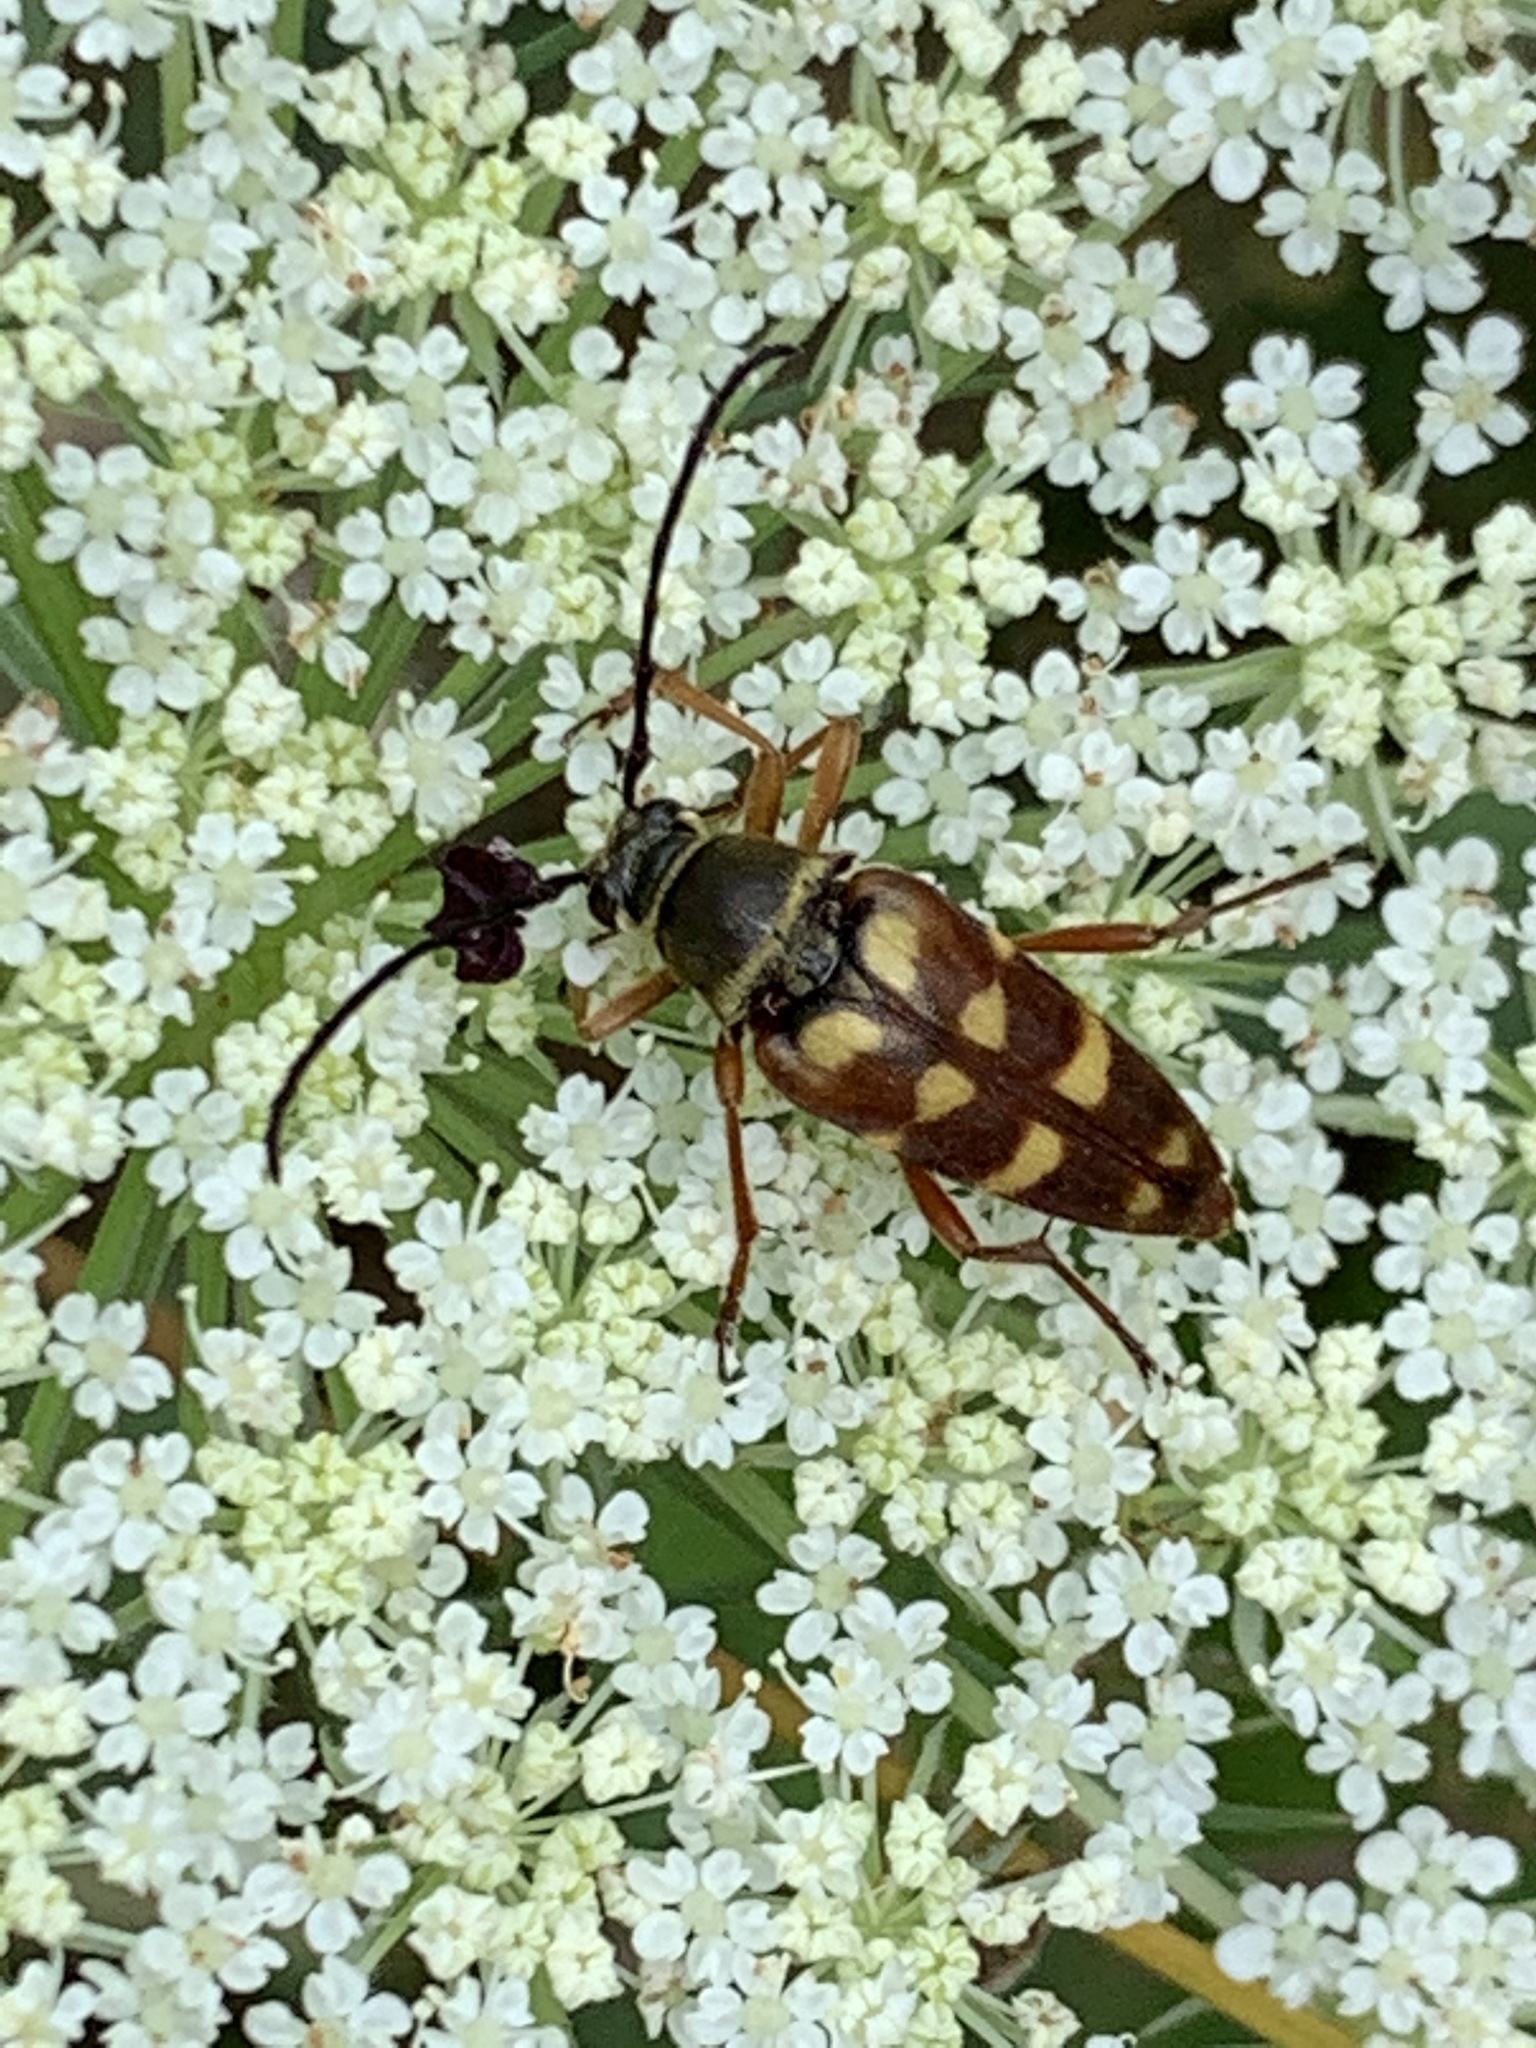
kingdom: Animalia
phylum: Arthropoda
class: Insecta
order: Coleoptera
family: Cerambycidae
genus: Typocerus
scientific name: Typocerus velutinus
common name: Banded longhorn beetle
